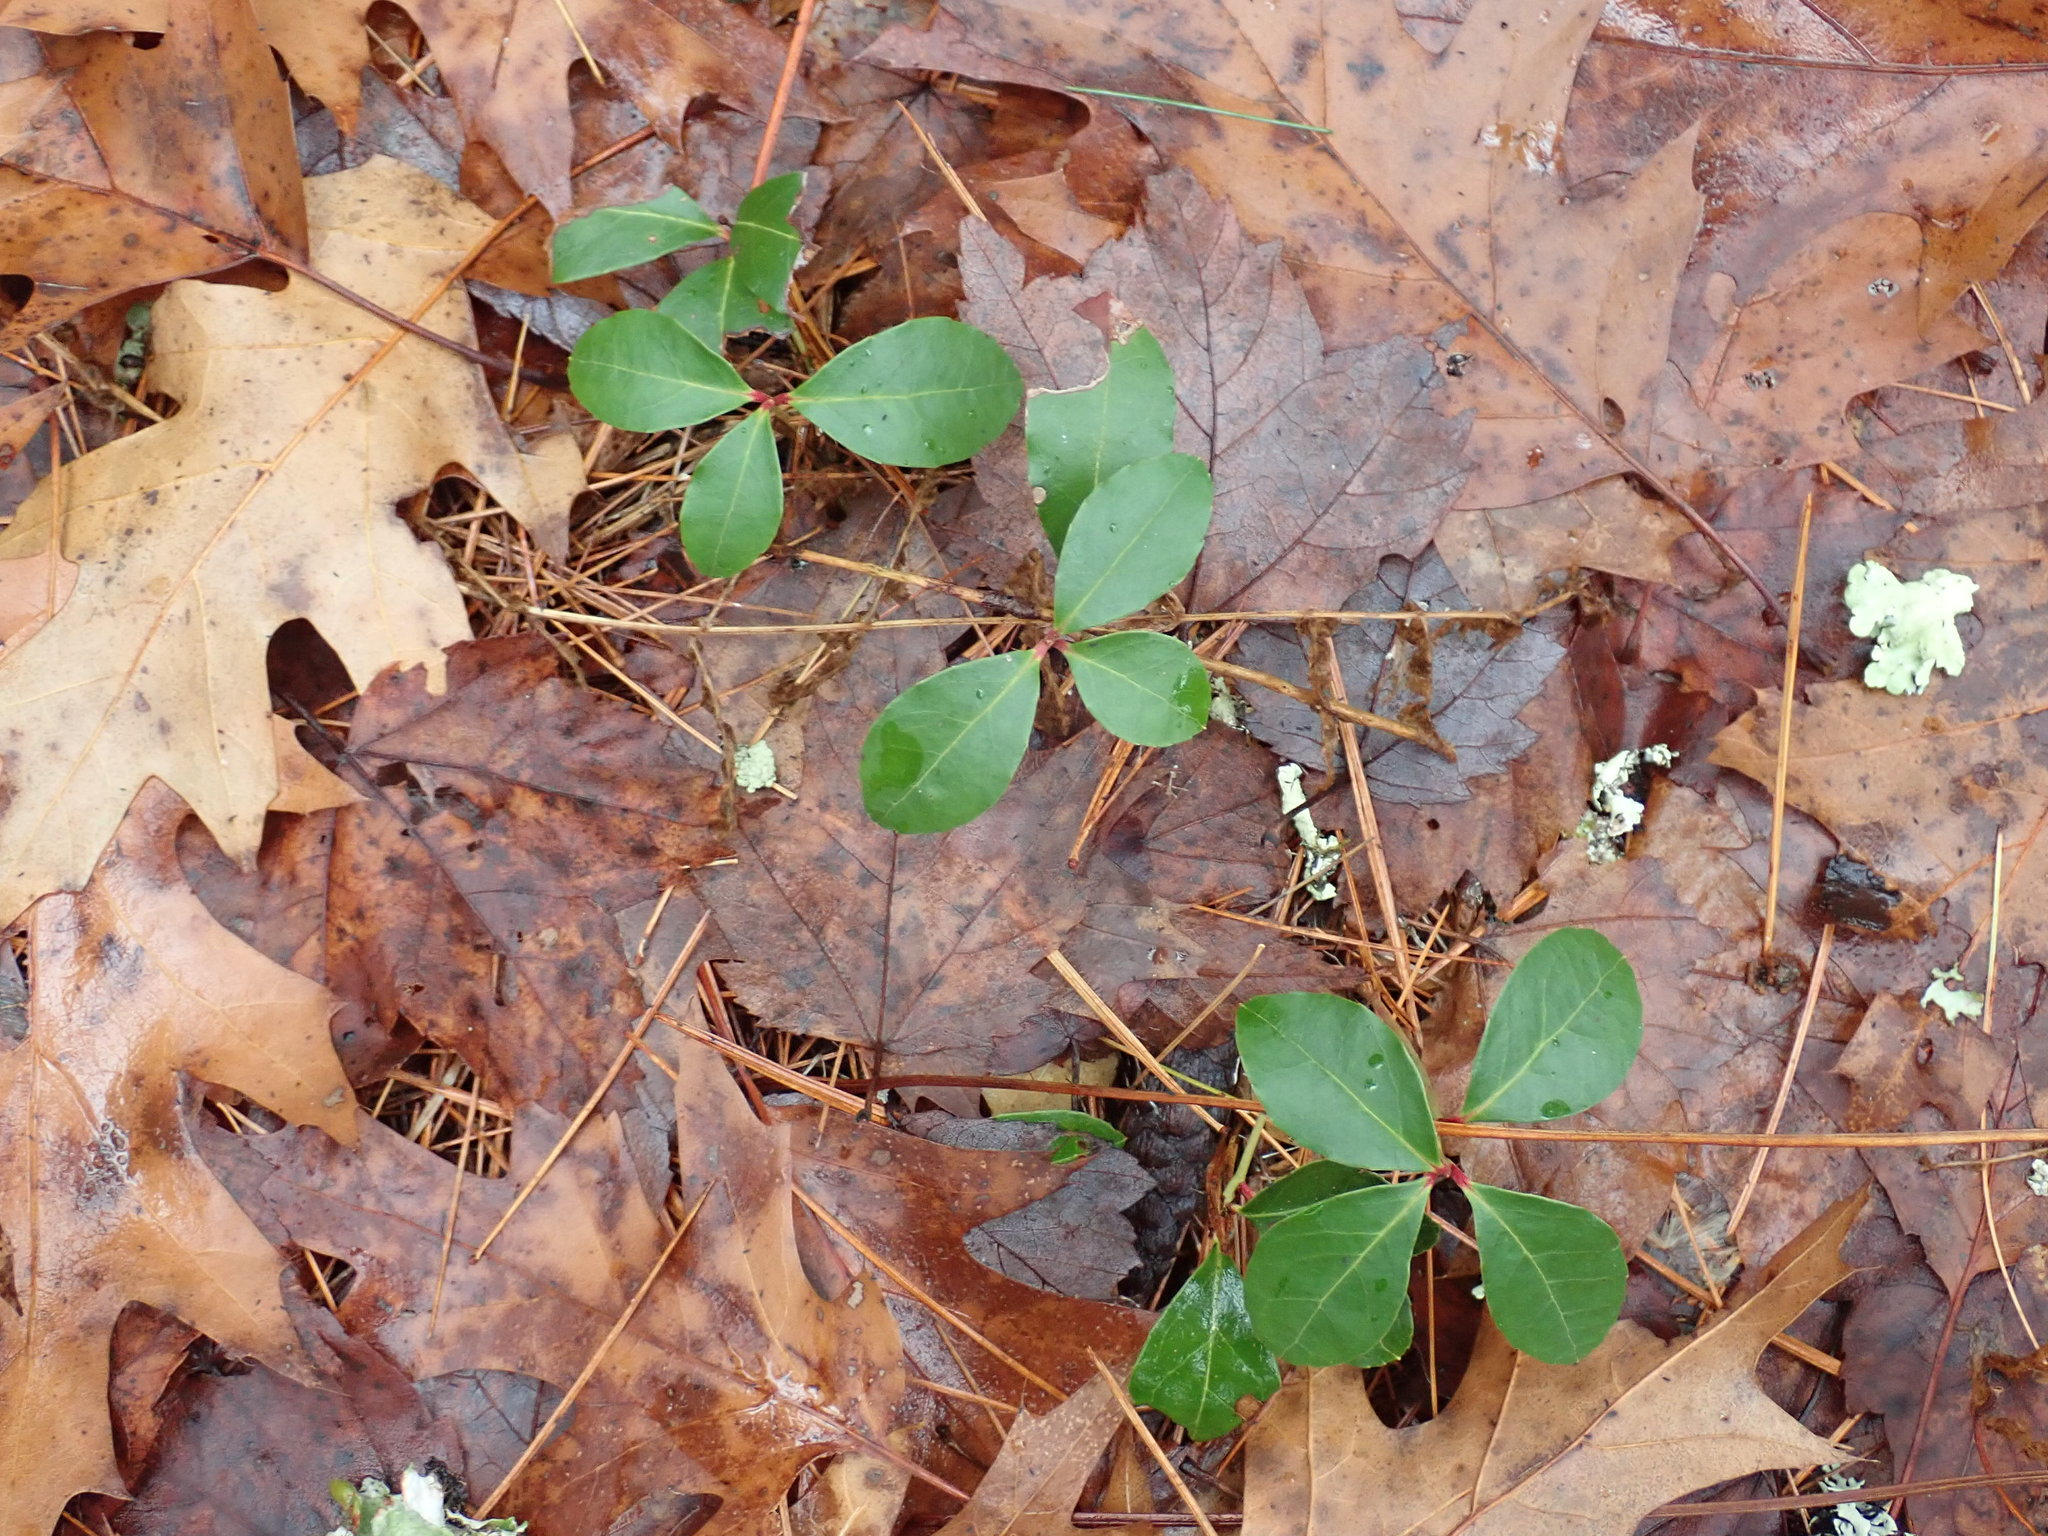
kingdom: Plantae
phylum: Tracheophyta
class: Magnoliopsida
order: Ericales
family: Ericaceae
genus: Gaultheria
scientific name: Gaultheria procumbens
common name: Checkerberry
